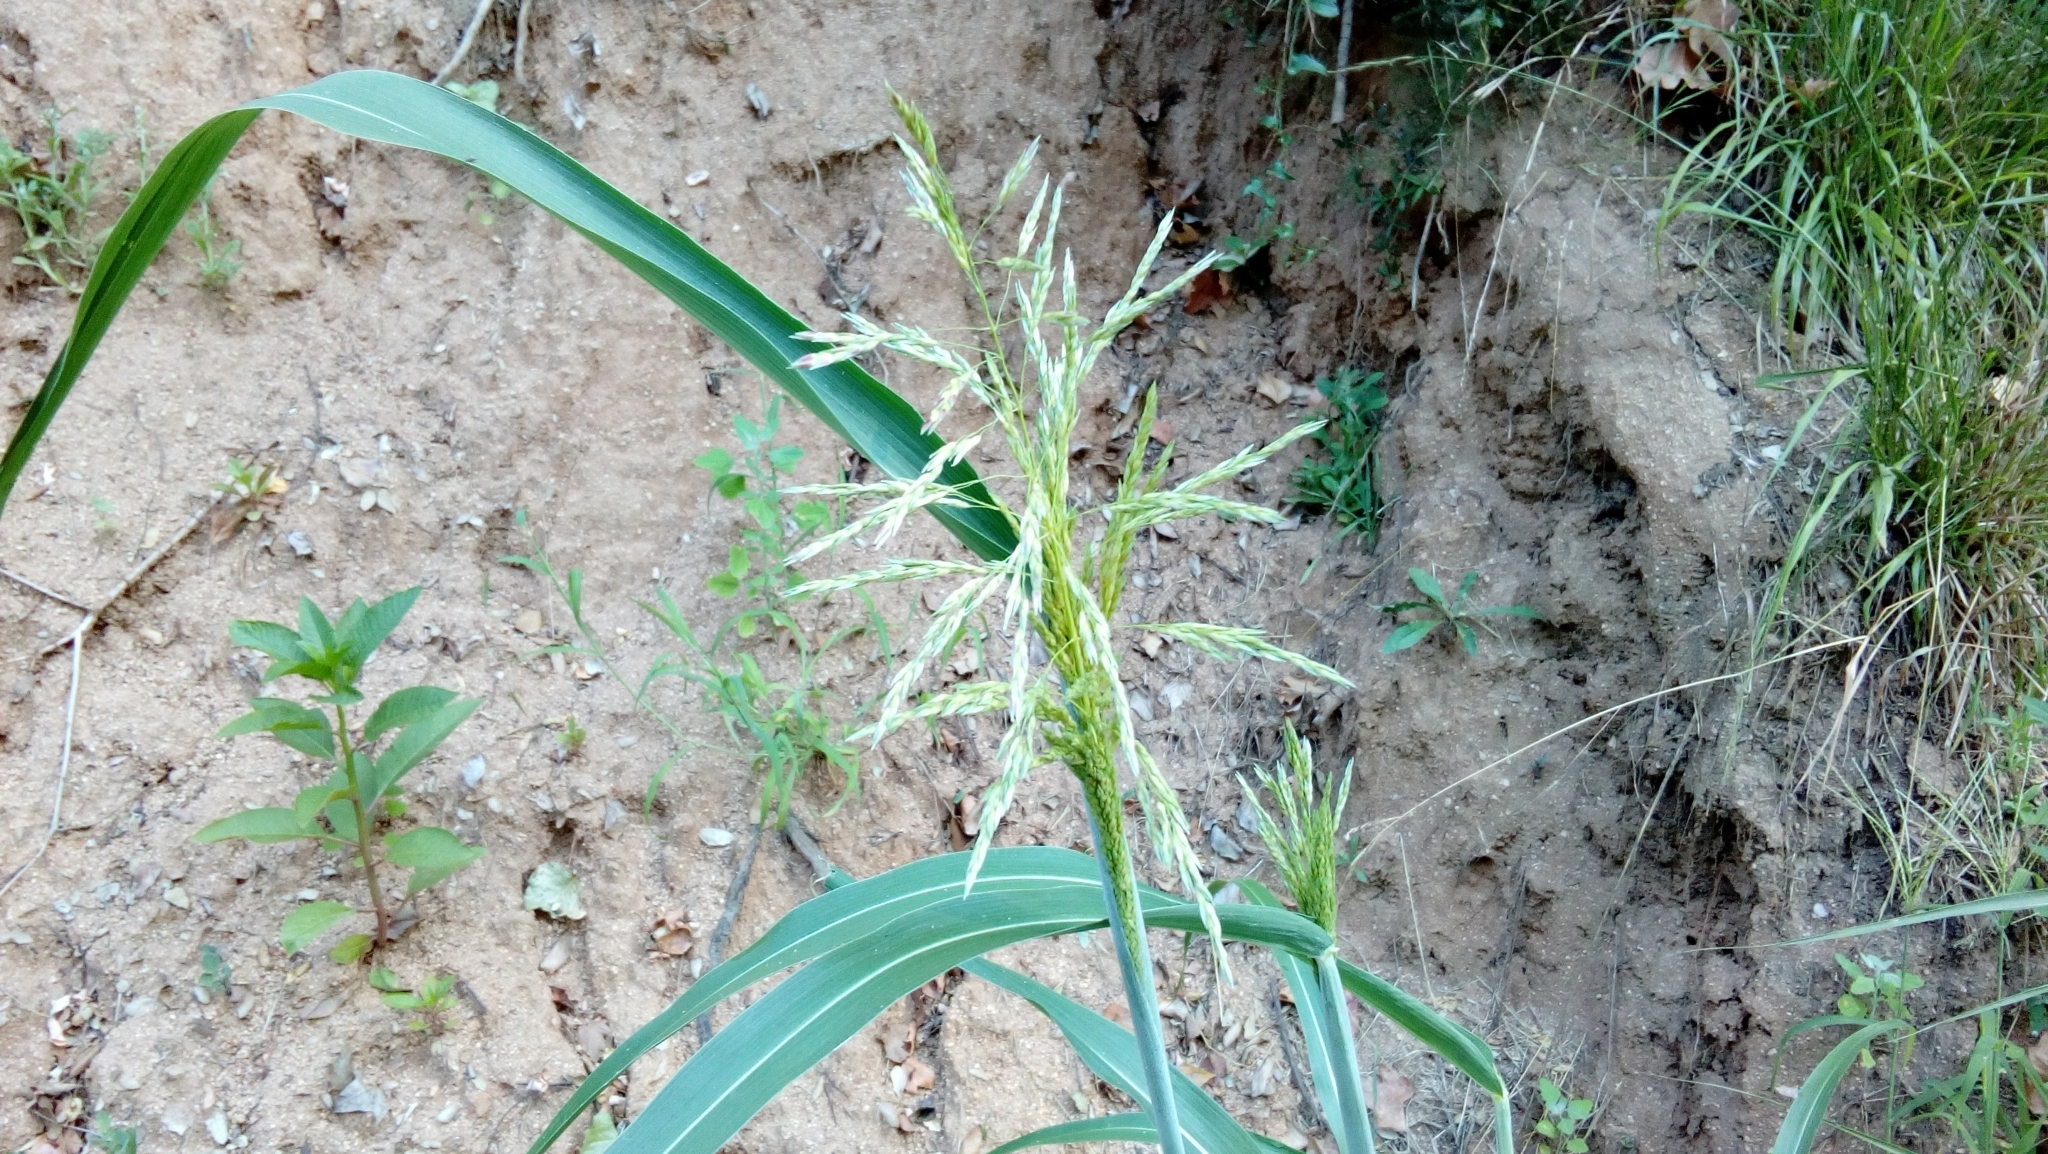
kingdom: Plantae
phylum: Tracheophyta
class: Liliopsida
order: Poales
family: Poaceae
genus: Sorghum
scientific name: Sorghum halepense
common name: Johnson-grass
